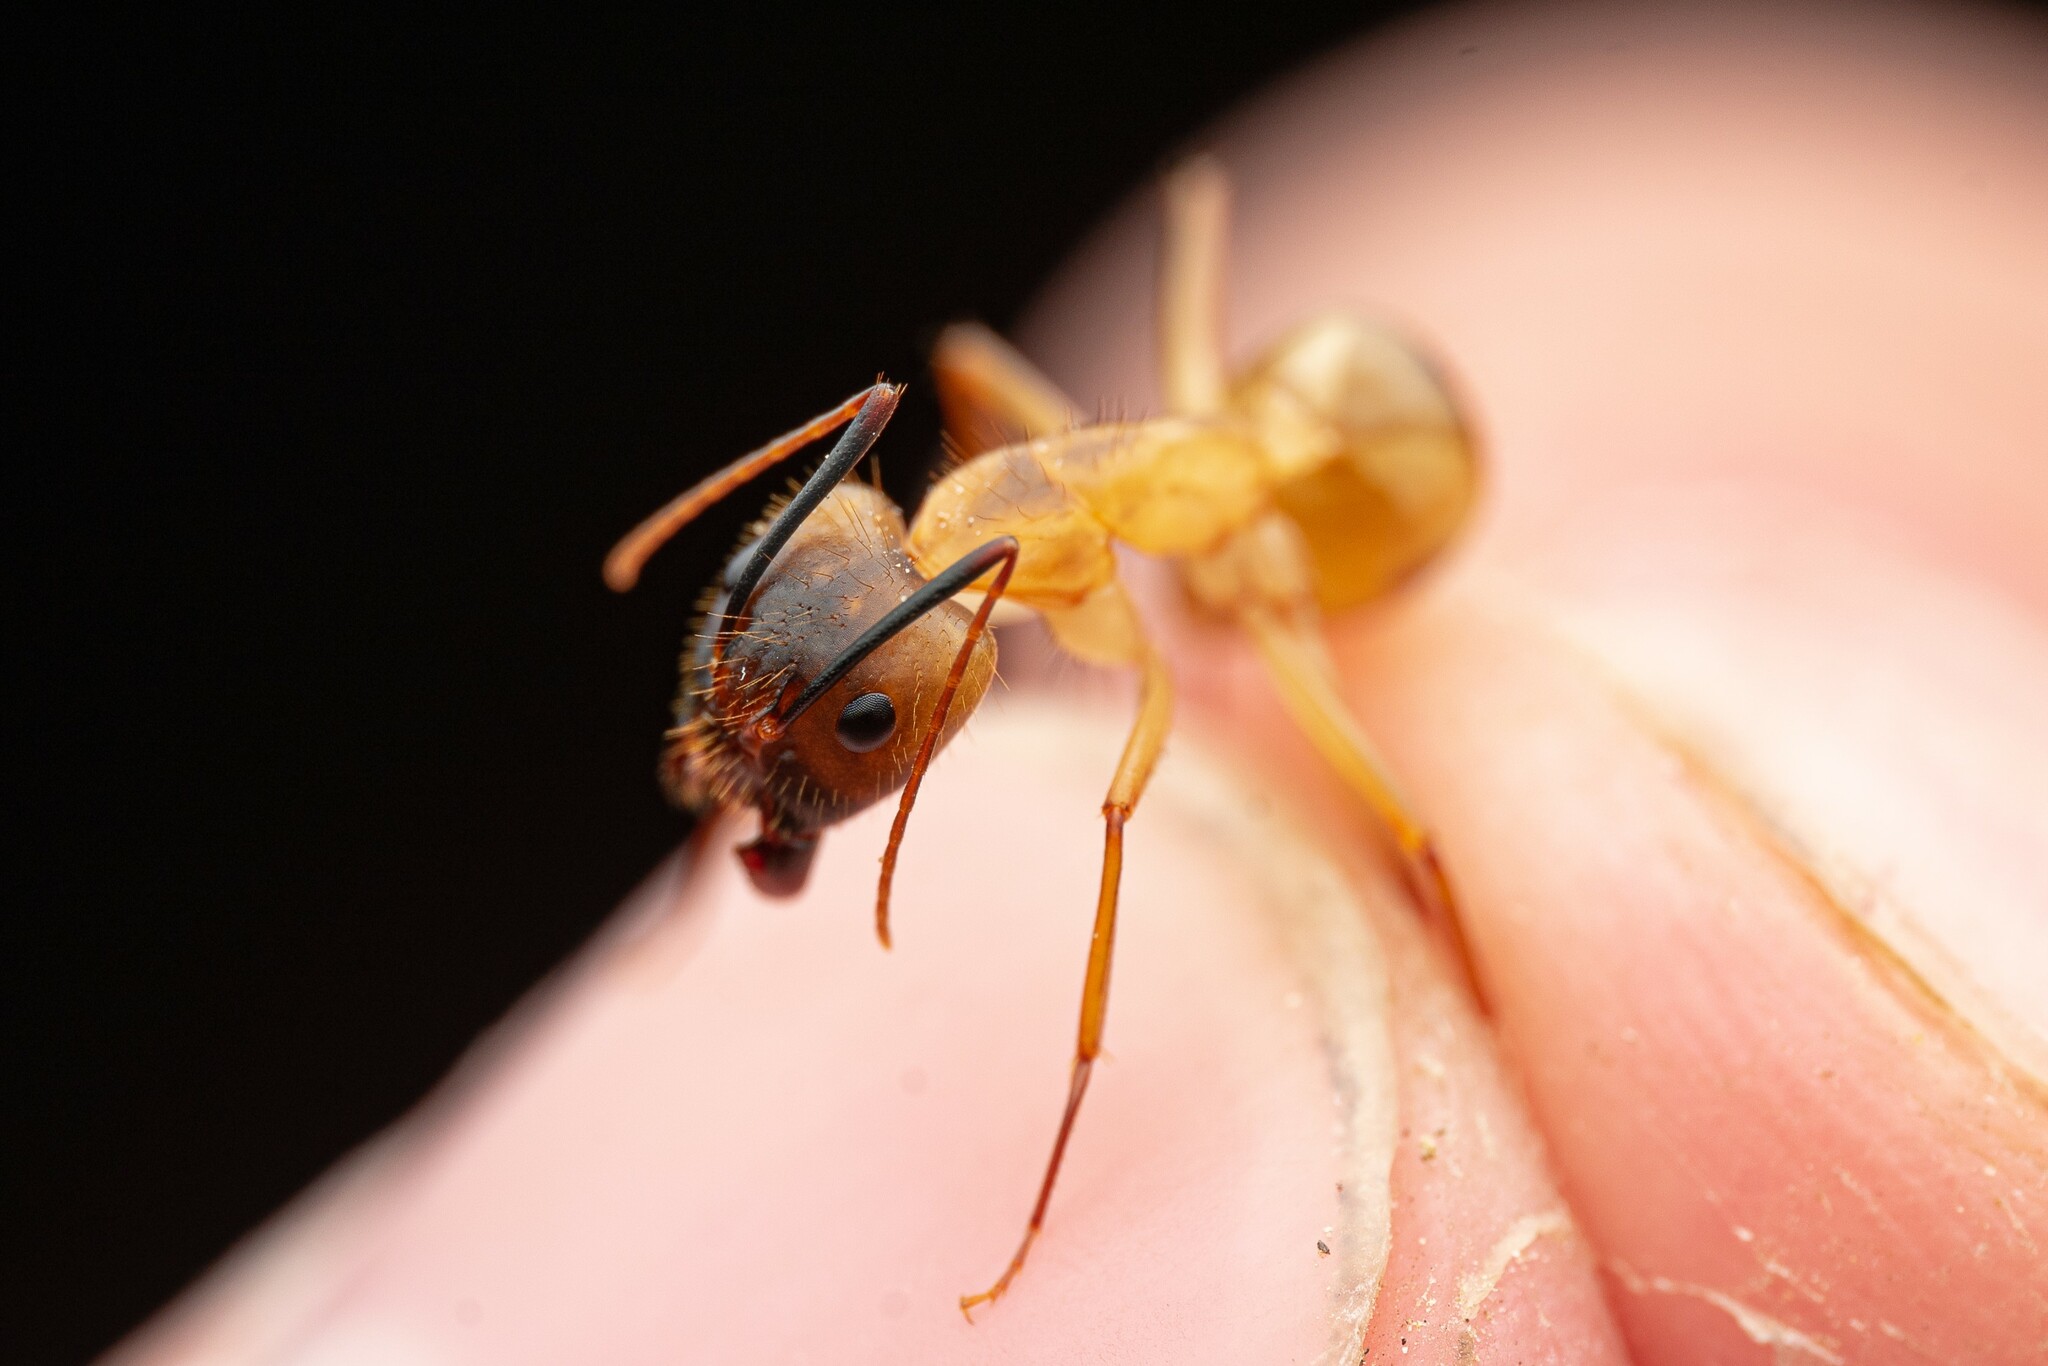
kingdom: Animalia
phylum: Arthropoda
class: Insecta
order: Hymenoptera
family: Formicidae
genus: Camponotus
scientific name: Camponotus festinatus
